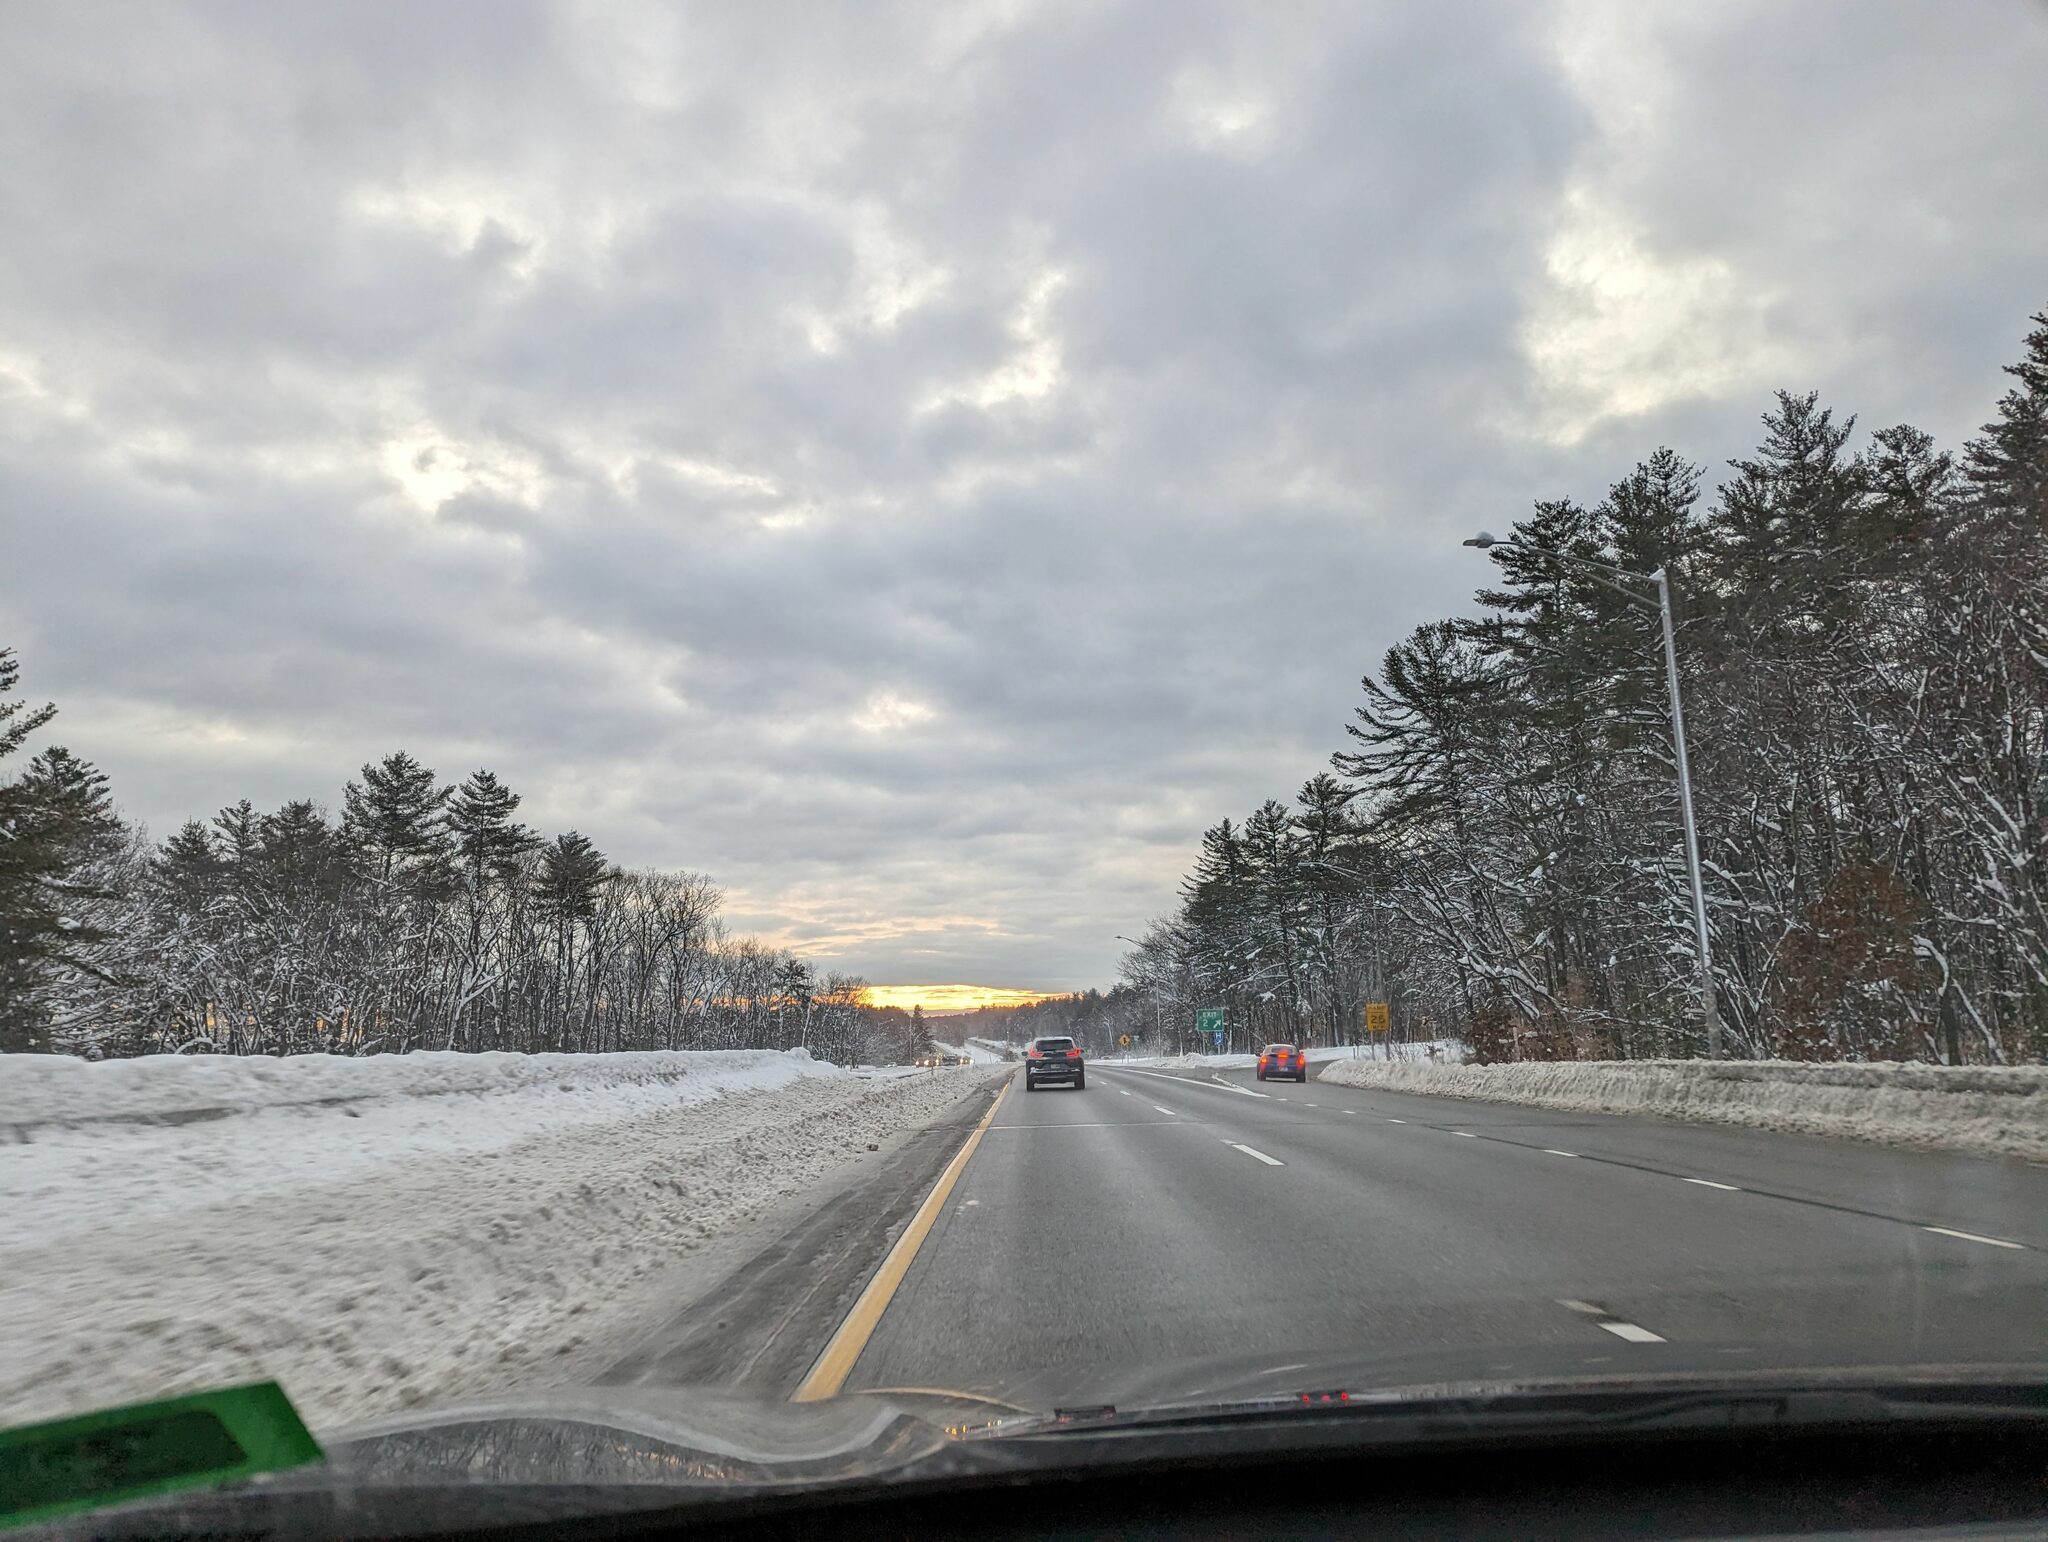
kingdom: Plantae
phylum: Tracheophyta
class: Pinopsida
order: Pinales
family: Pinaceae
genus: Pinus
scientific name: Pinus strobus
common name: Weymouth pine
